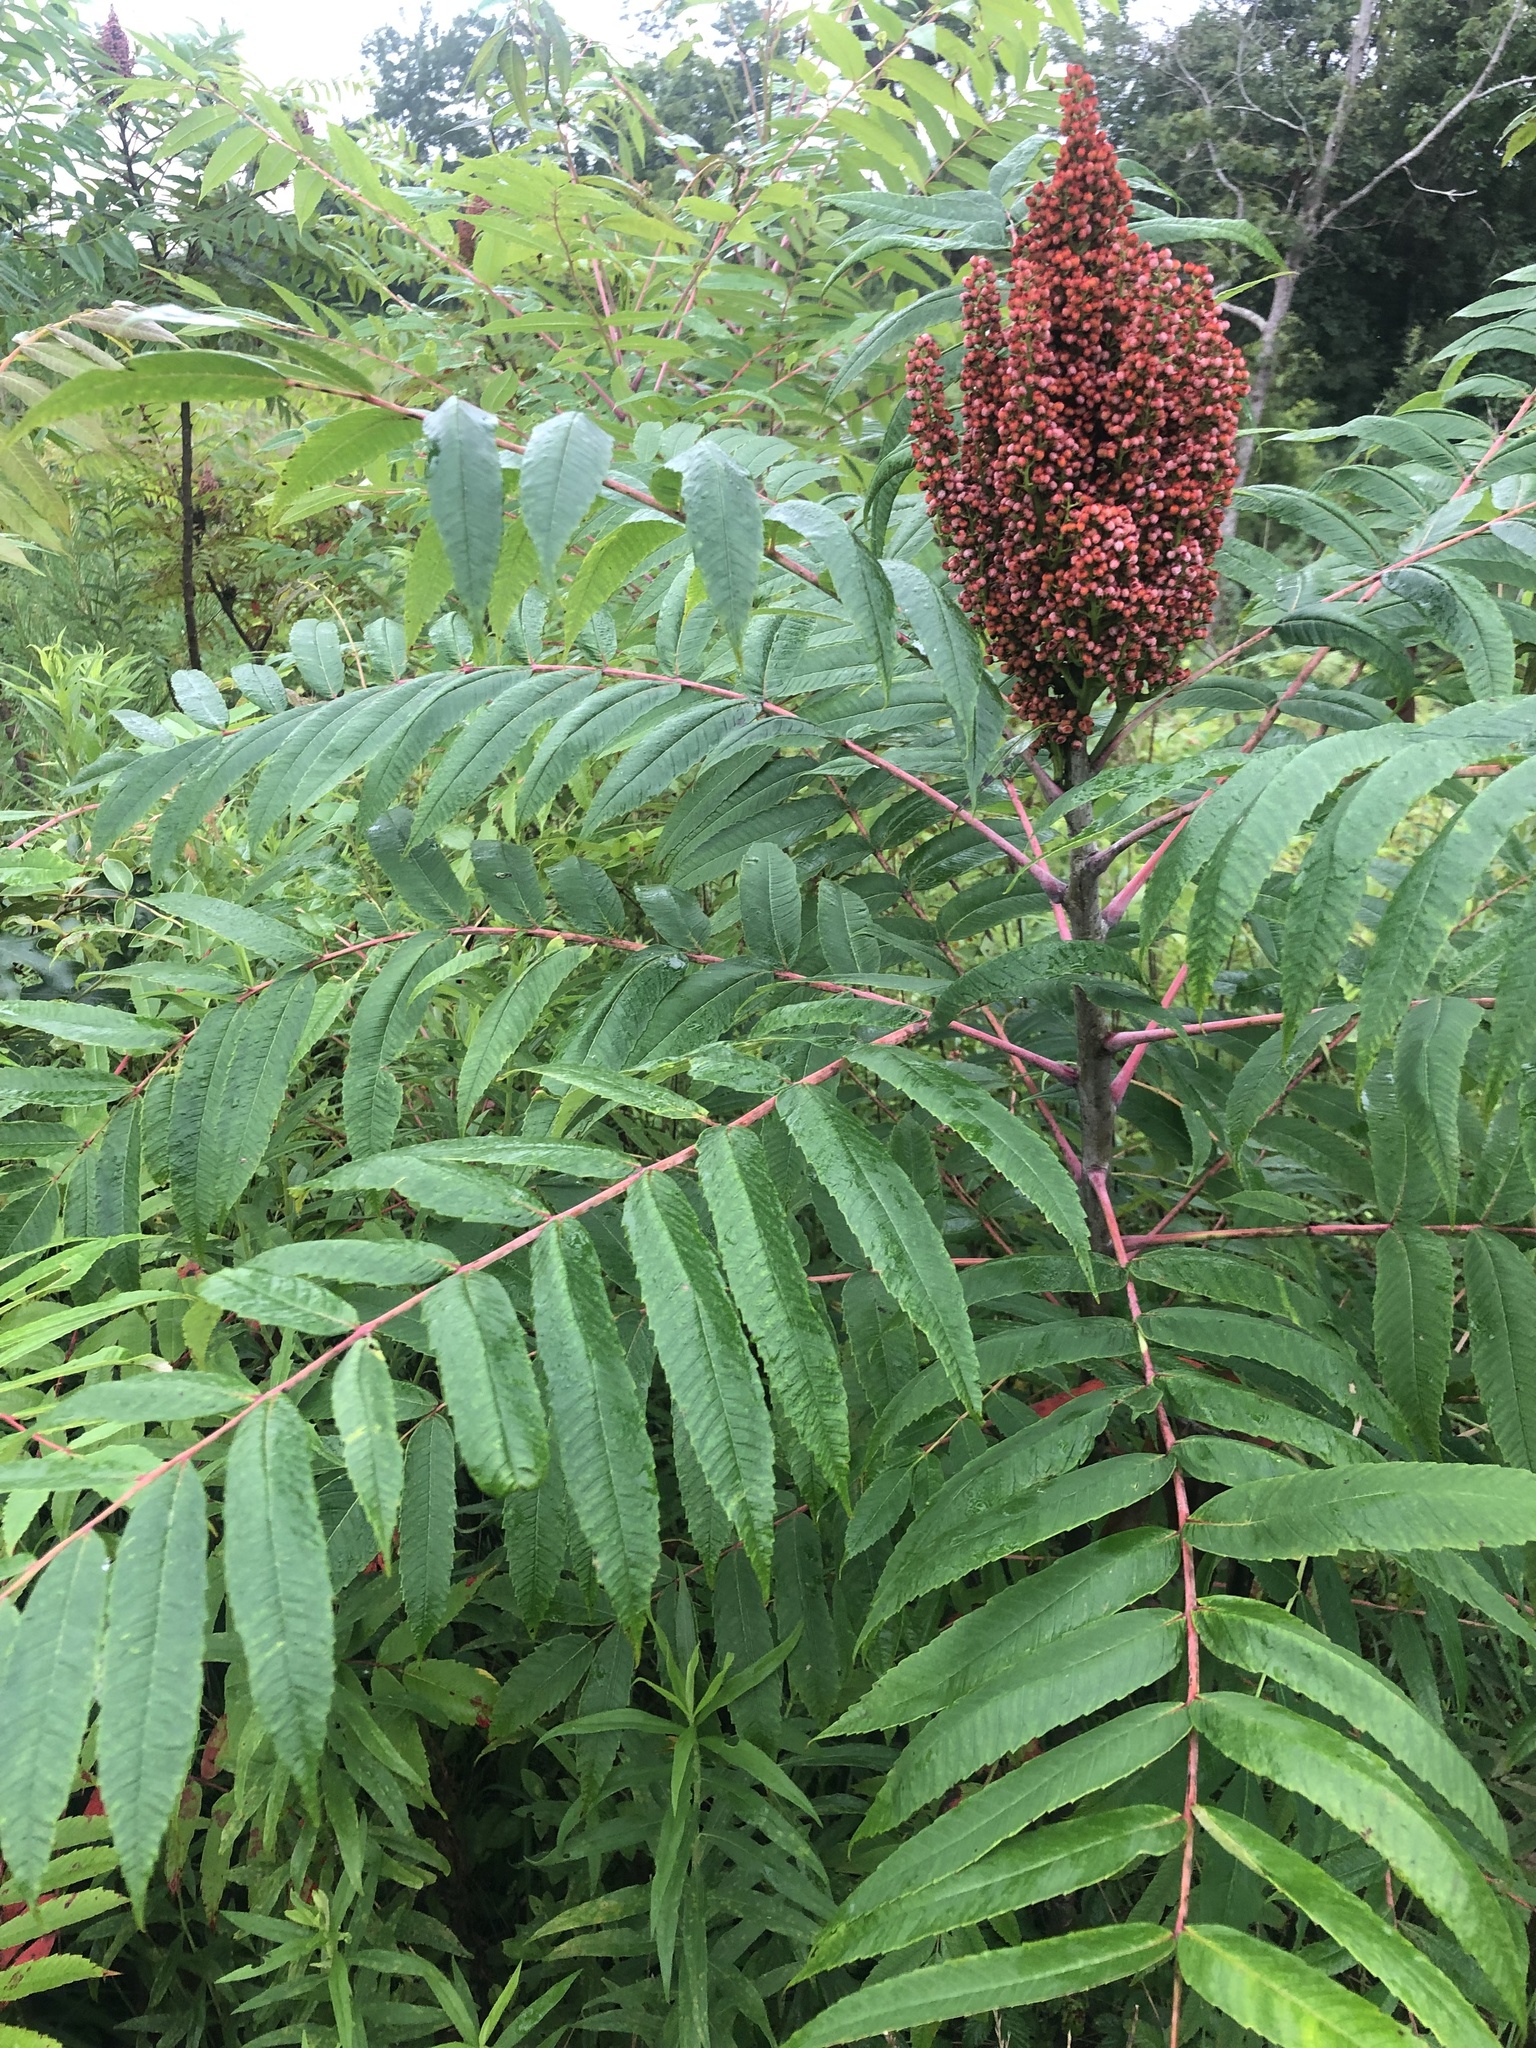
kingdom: Plantae
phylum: Tracheophyta
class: Magnoliopsida
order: Sapindales
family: Anacardiaceae
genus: Rhus
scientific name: Rhus glabra
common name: Scarlet sumac
